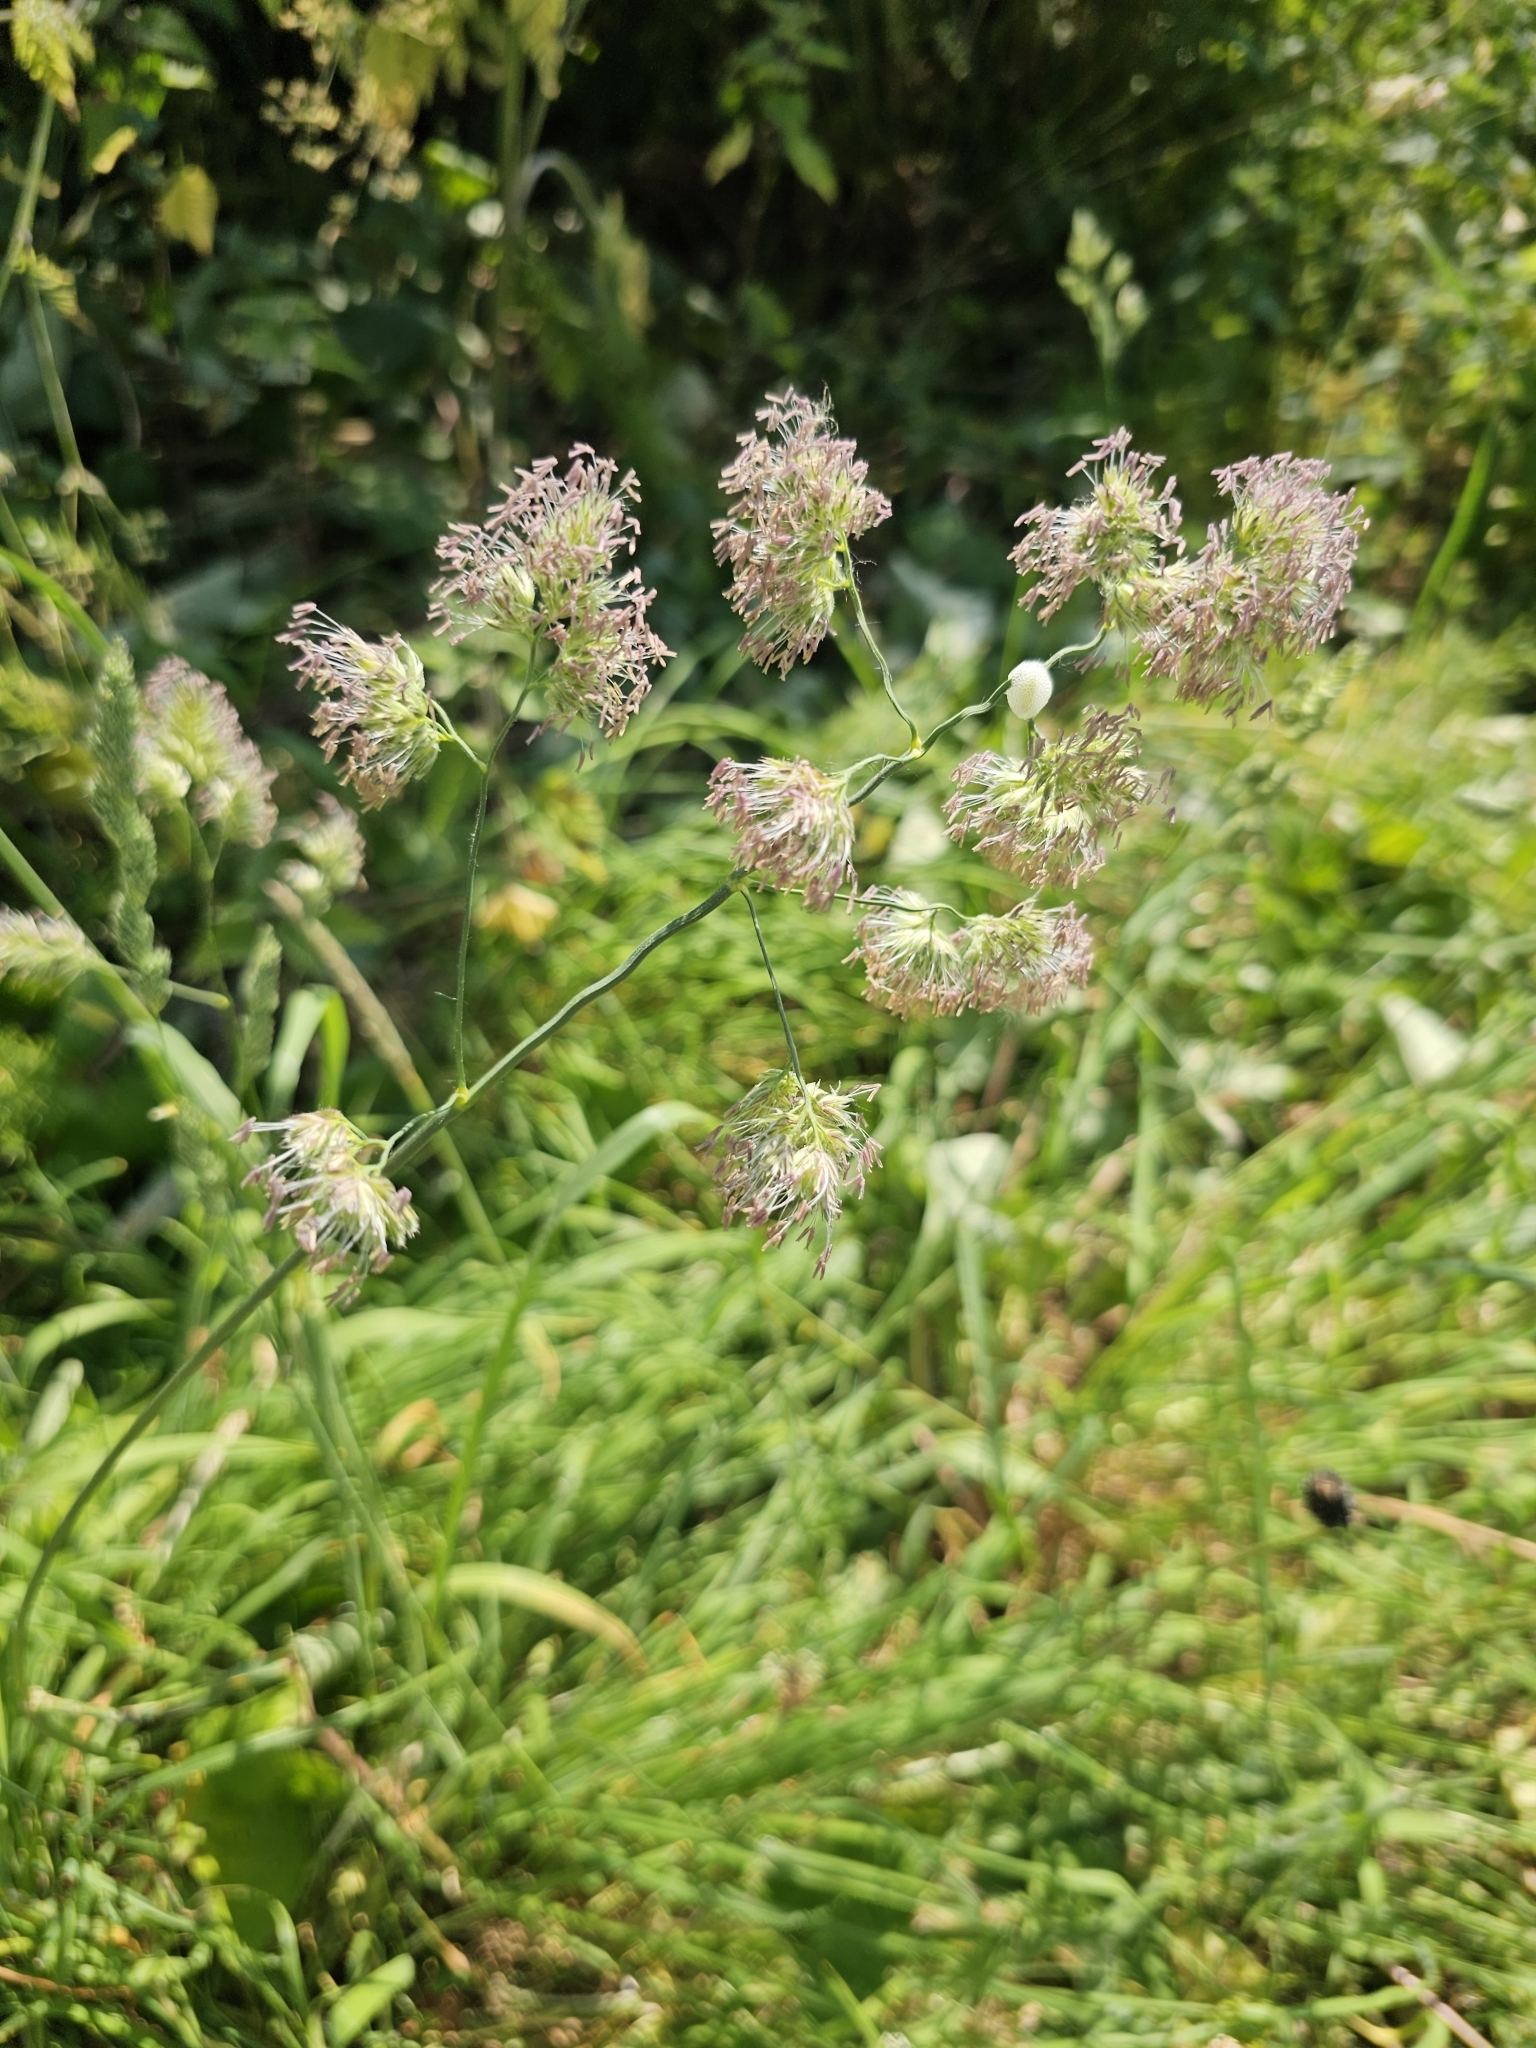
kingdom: Plantae
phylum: Tracheophyta
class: Liliopsida
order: Poales
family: Poaceae
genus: Dactylis
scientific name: Dactylis glomerata
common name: Orchardgrass
